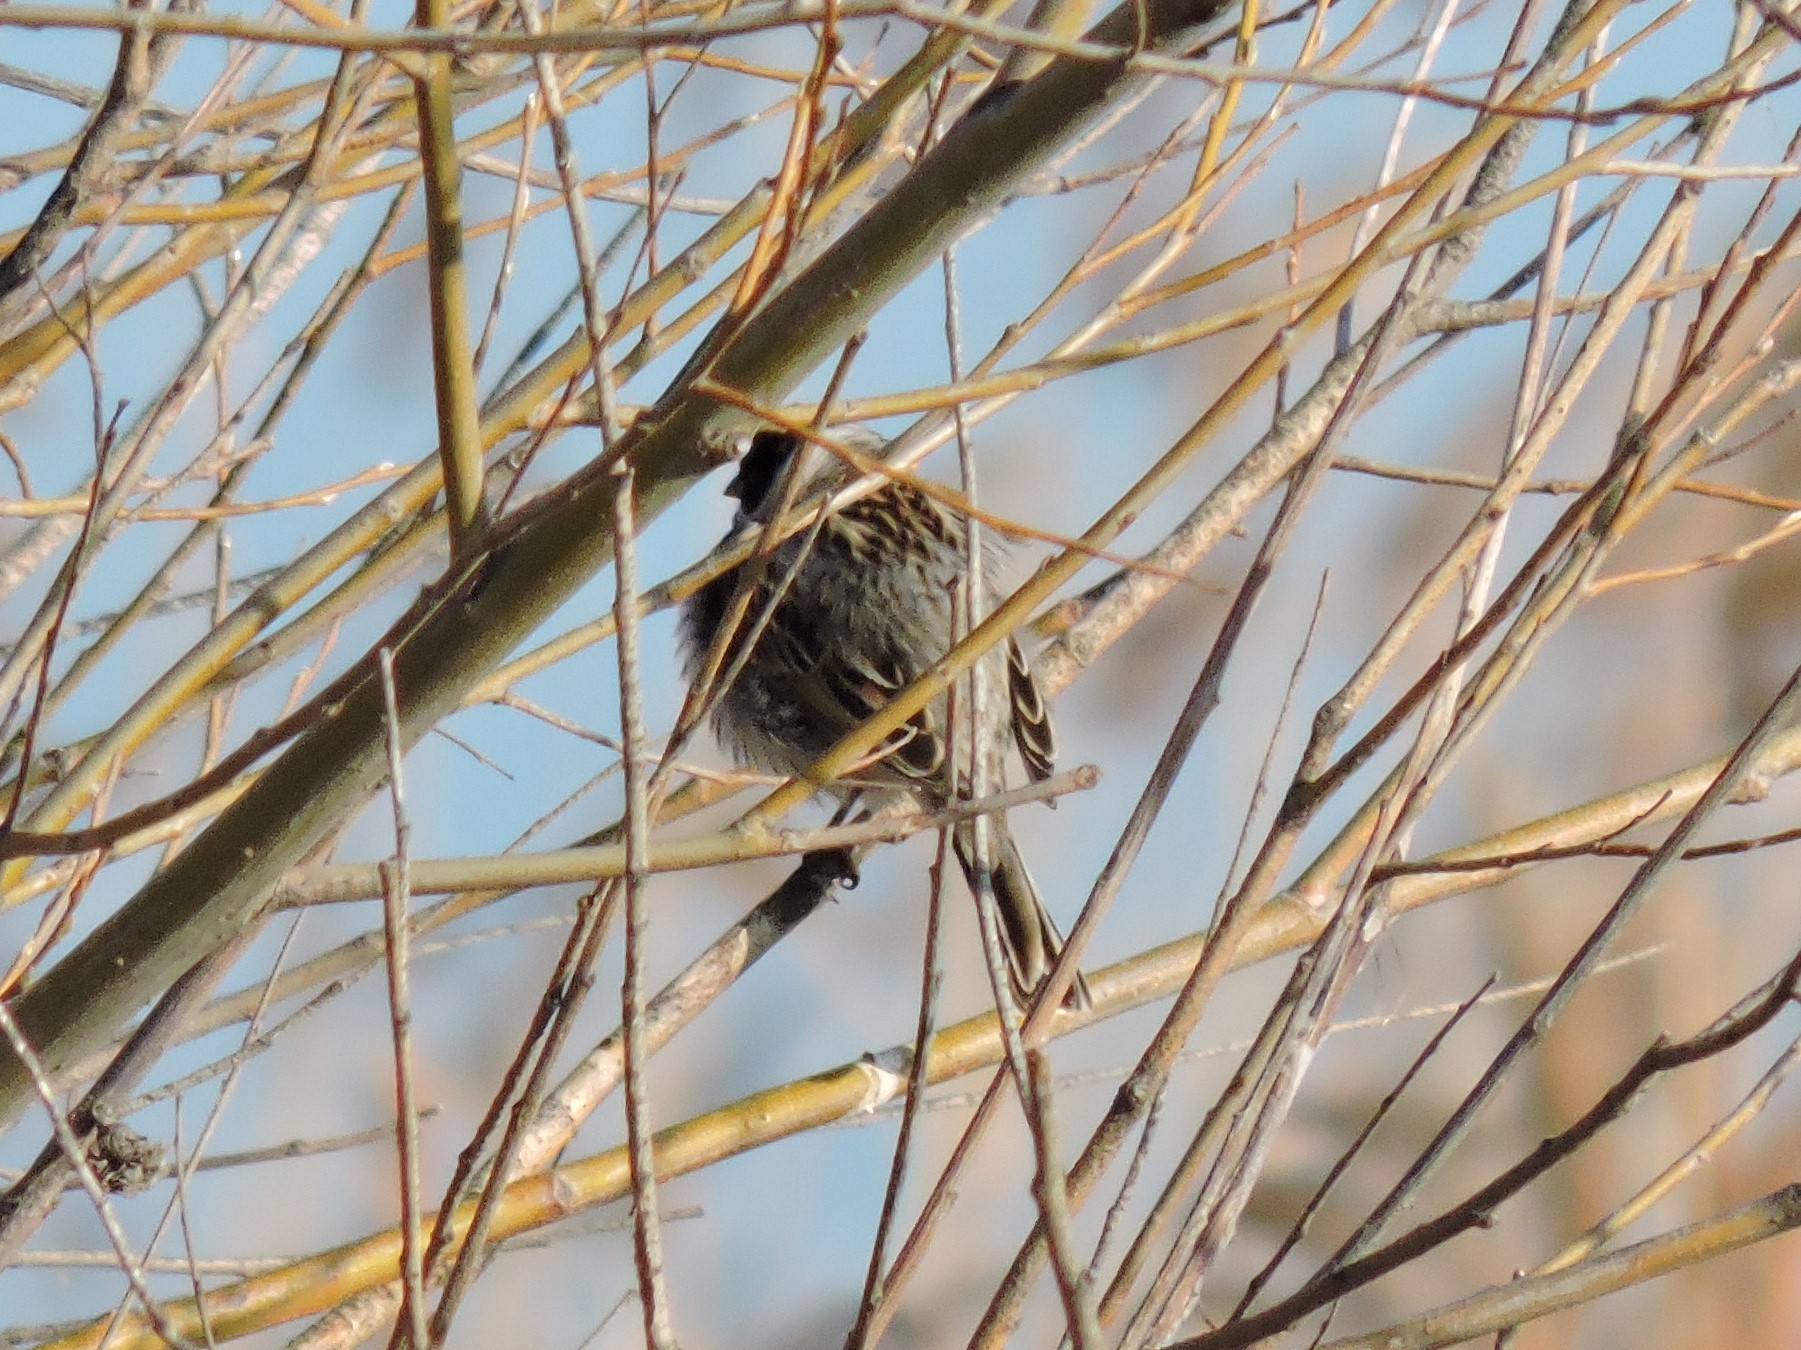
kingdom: Animalia
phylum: Chordata
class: Aves
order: Passeriformes
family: Emberizidae
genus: Emberiza
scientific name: Emberiza schoeniclus
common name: Reed bunting
